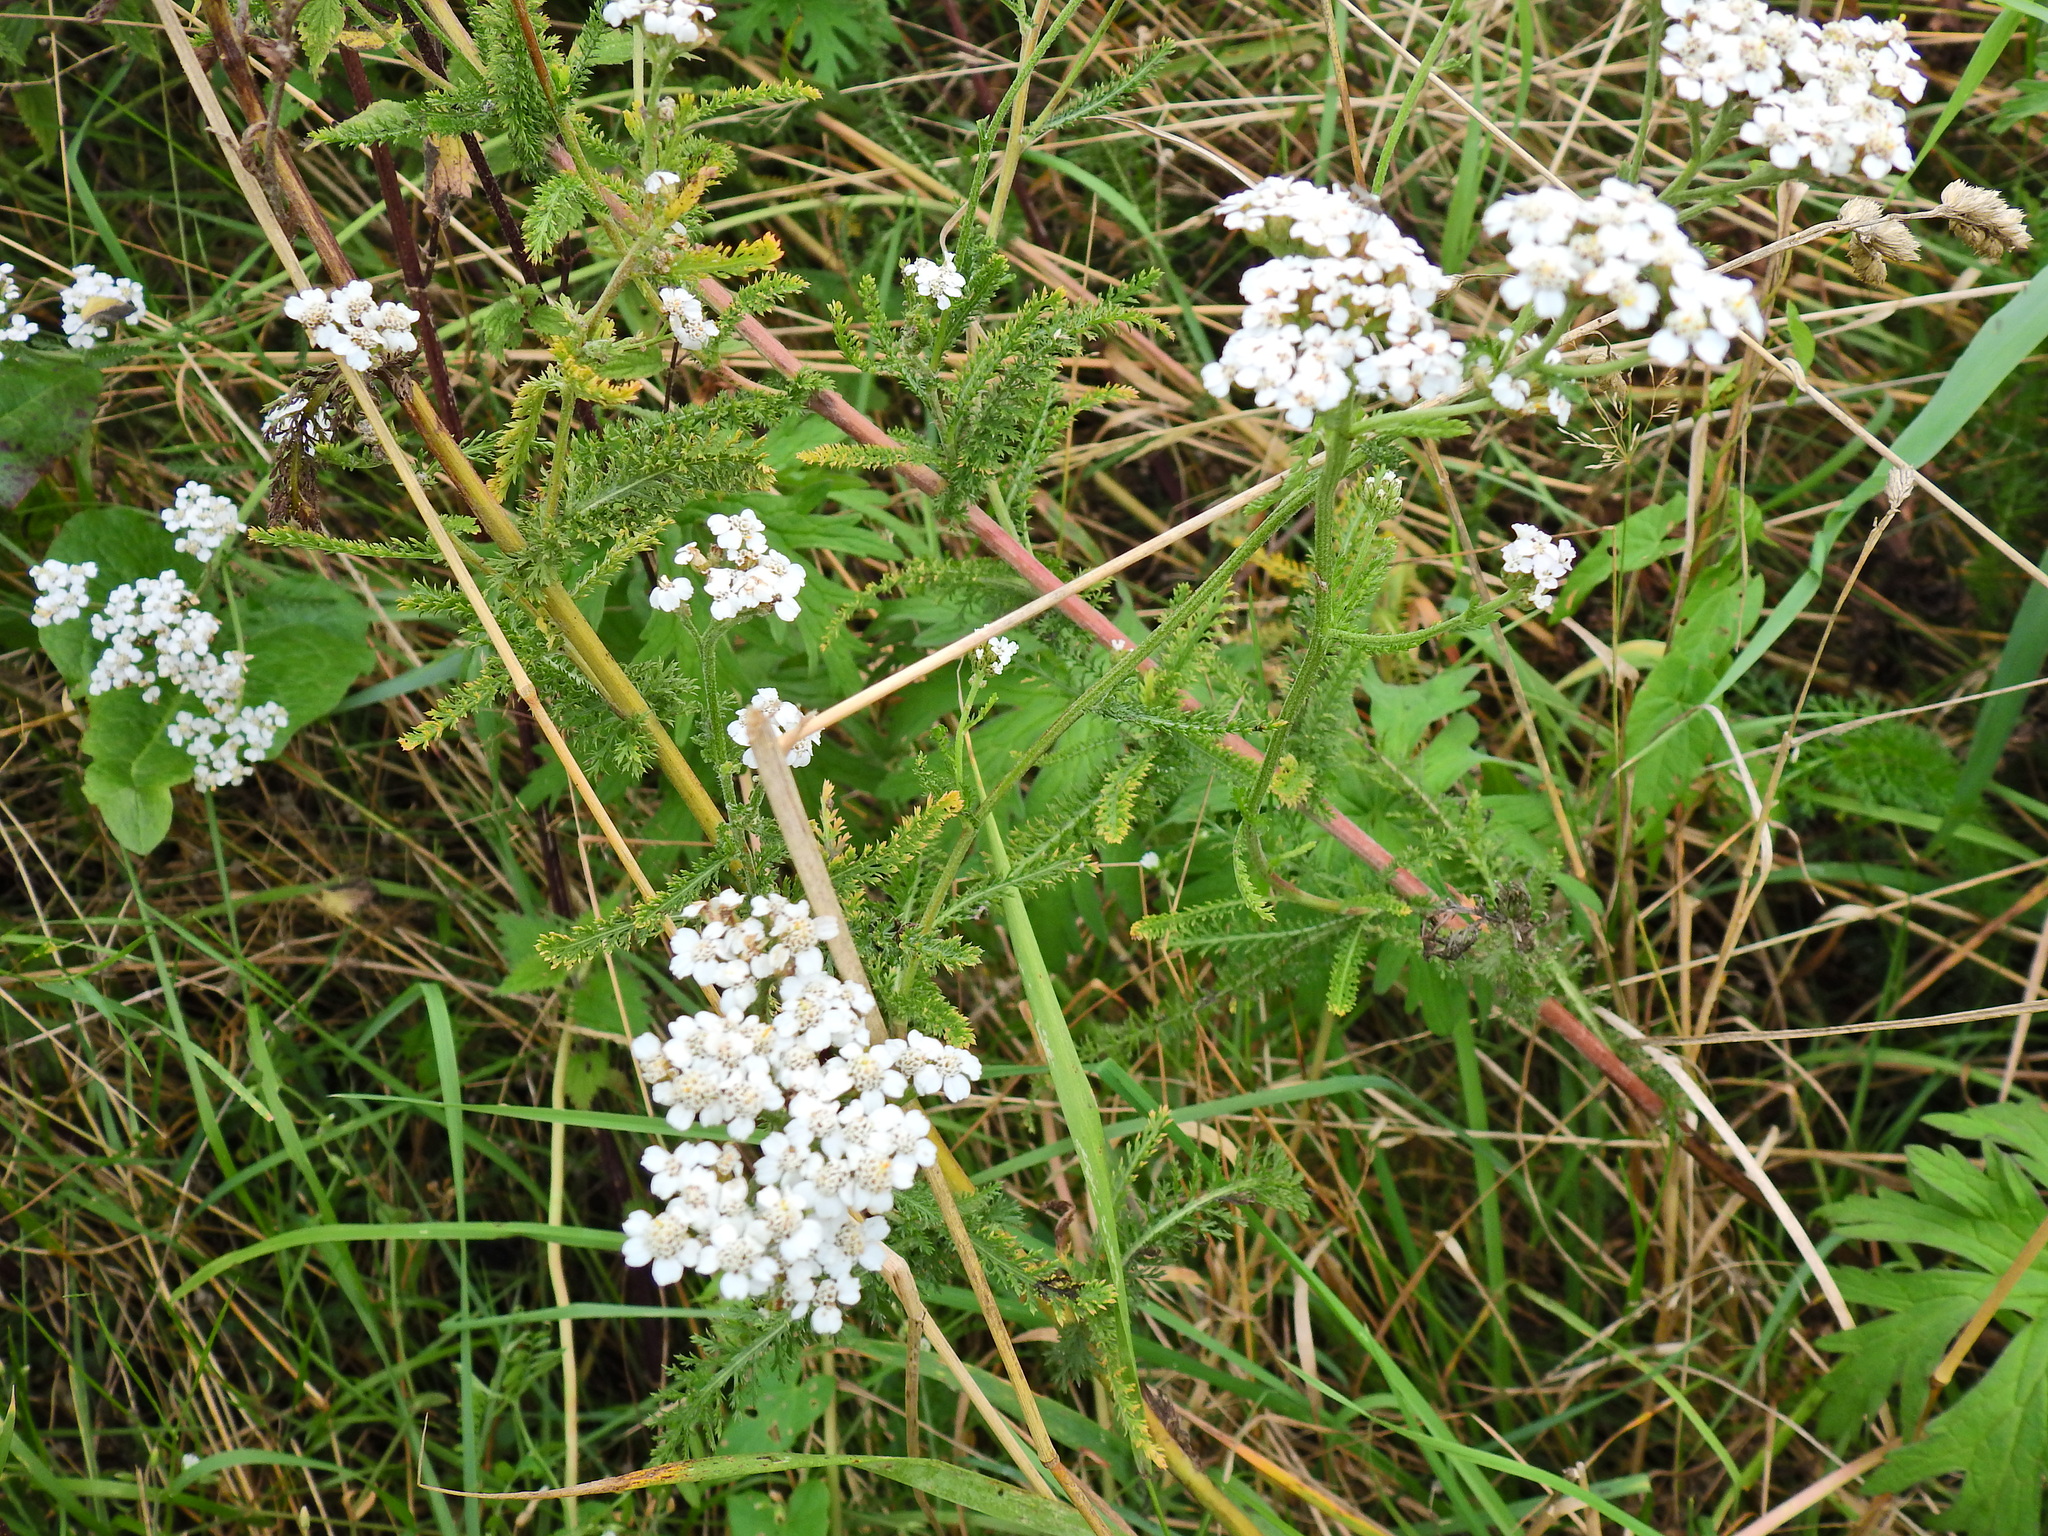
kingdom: Plantae
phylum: Tracheophyta
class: Magnoliopsida
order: Asterales
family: Asteraceae
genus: Achillea
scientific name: Achillea millefolium
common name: Yarrow
